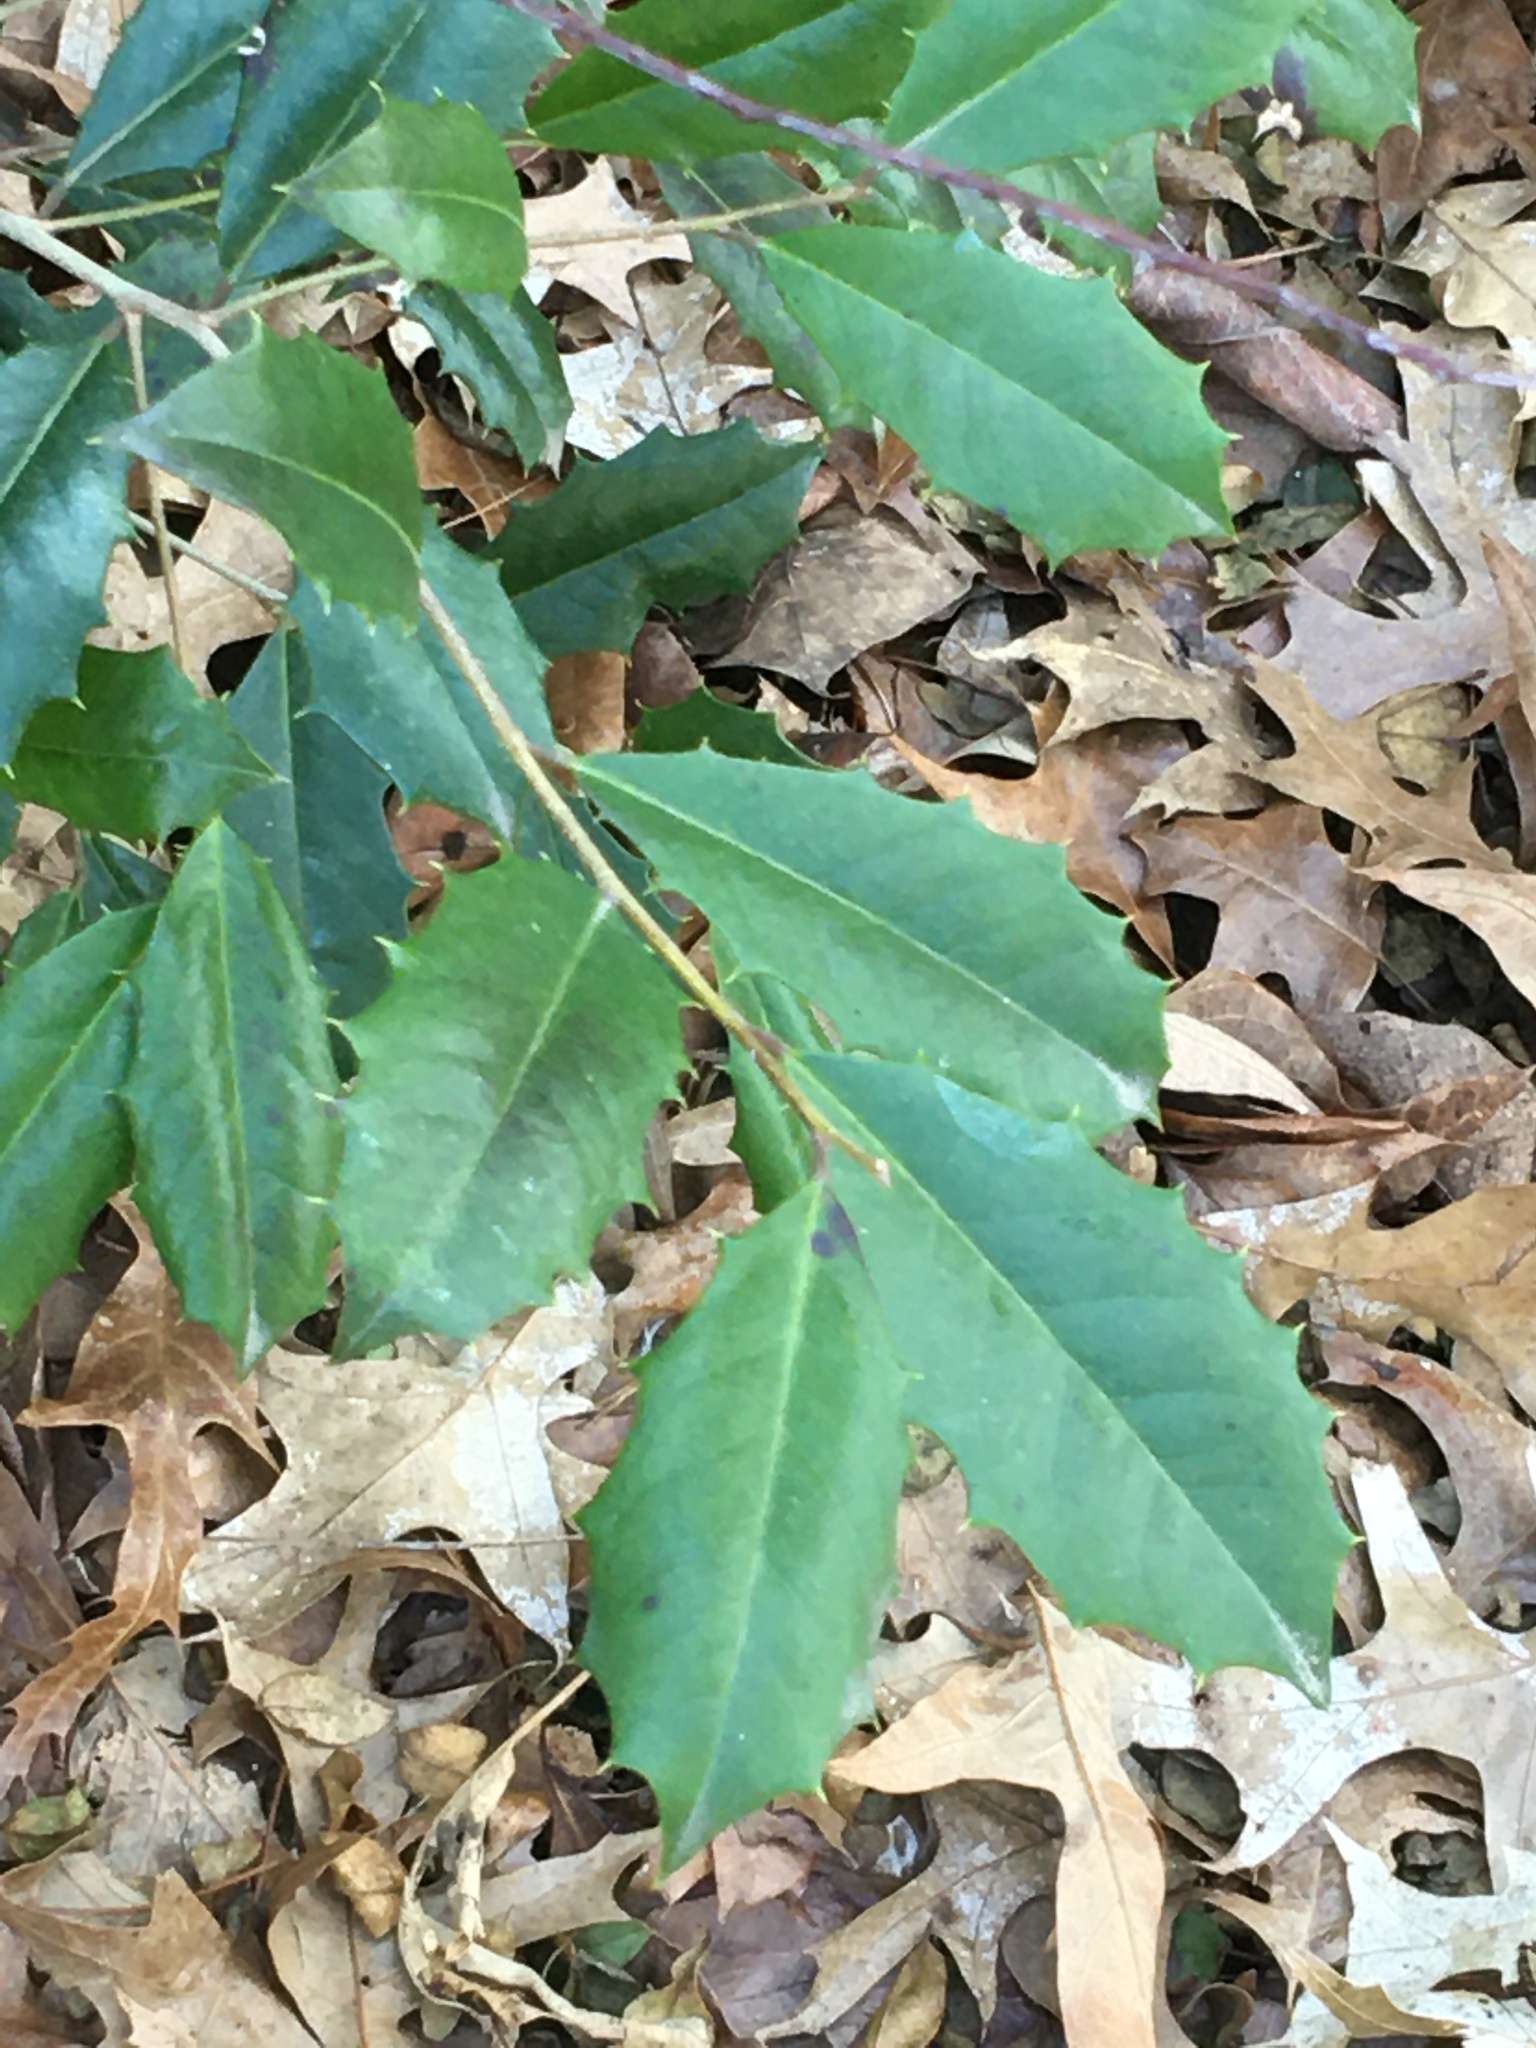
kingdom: Plantae
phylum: Tracheophyta
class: Magnoliopsida
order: Aquifoliales
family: Aquifoliaceae
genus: Ilex
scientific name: Ilex opaca
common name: American holly
